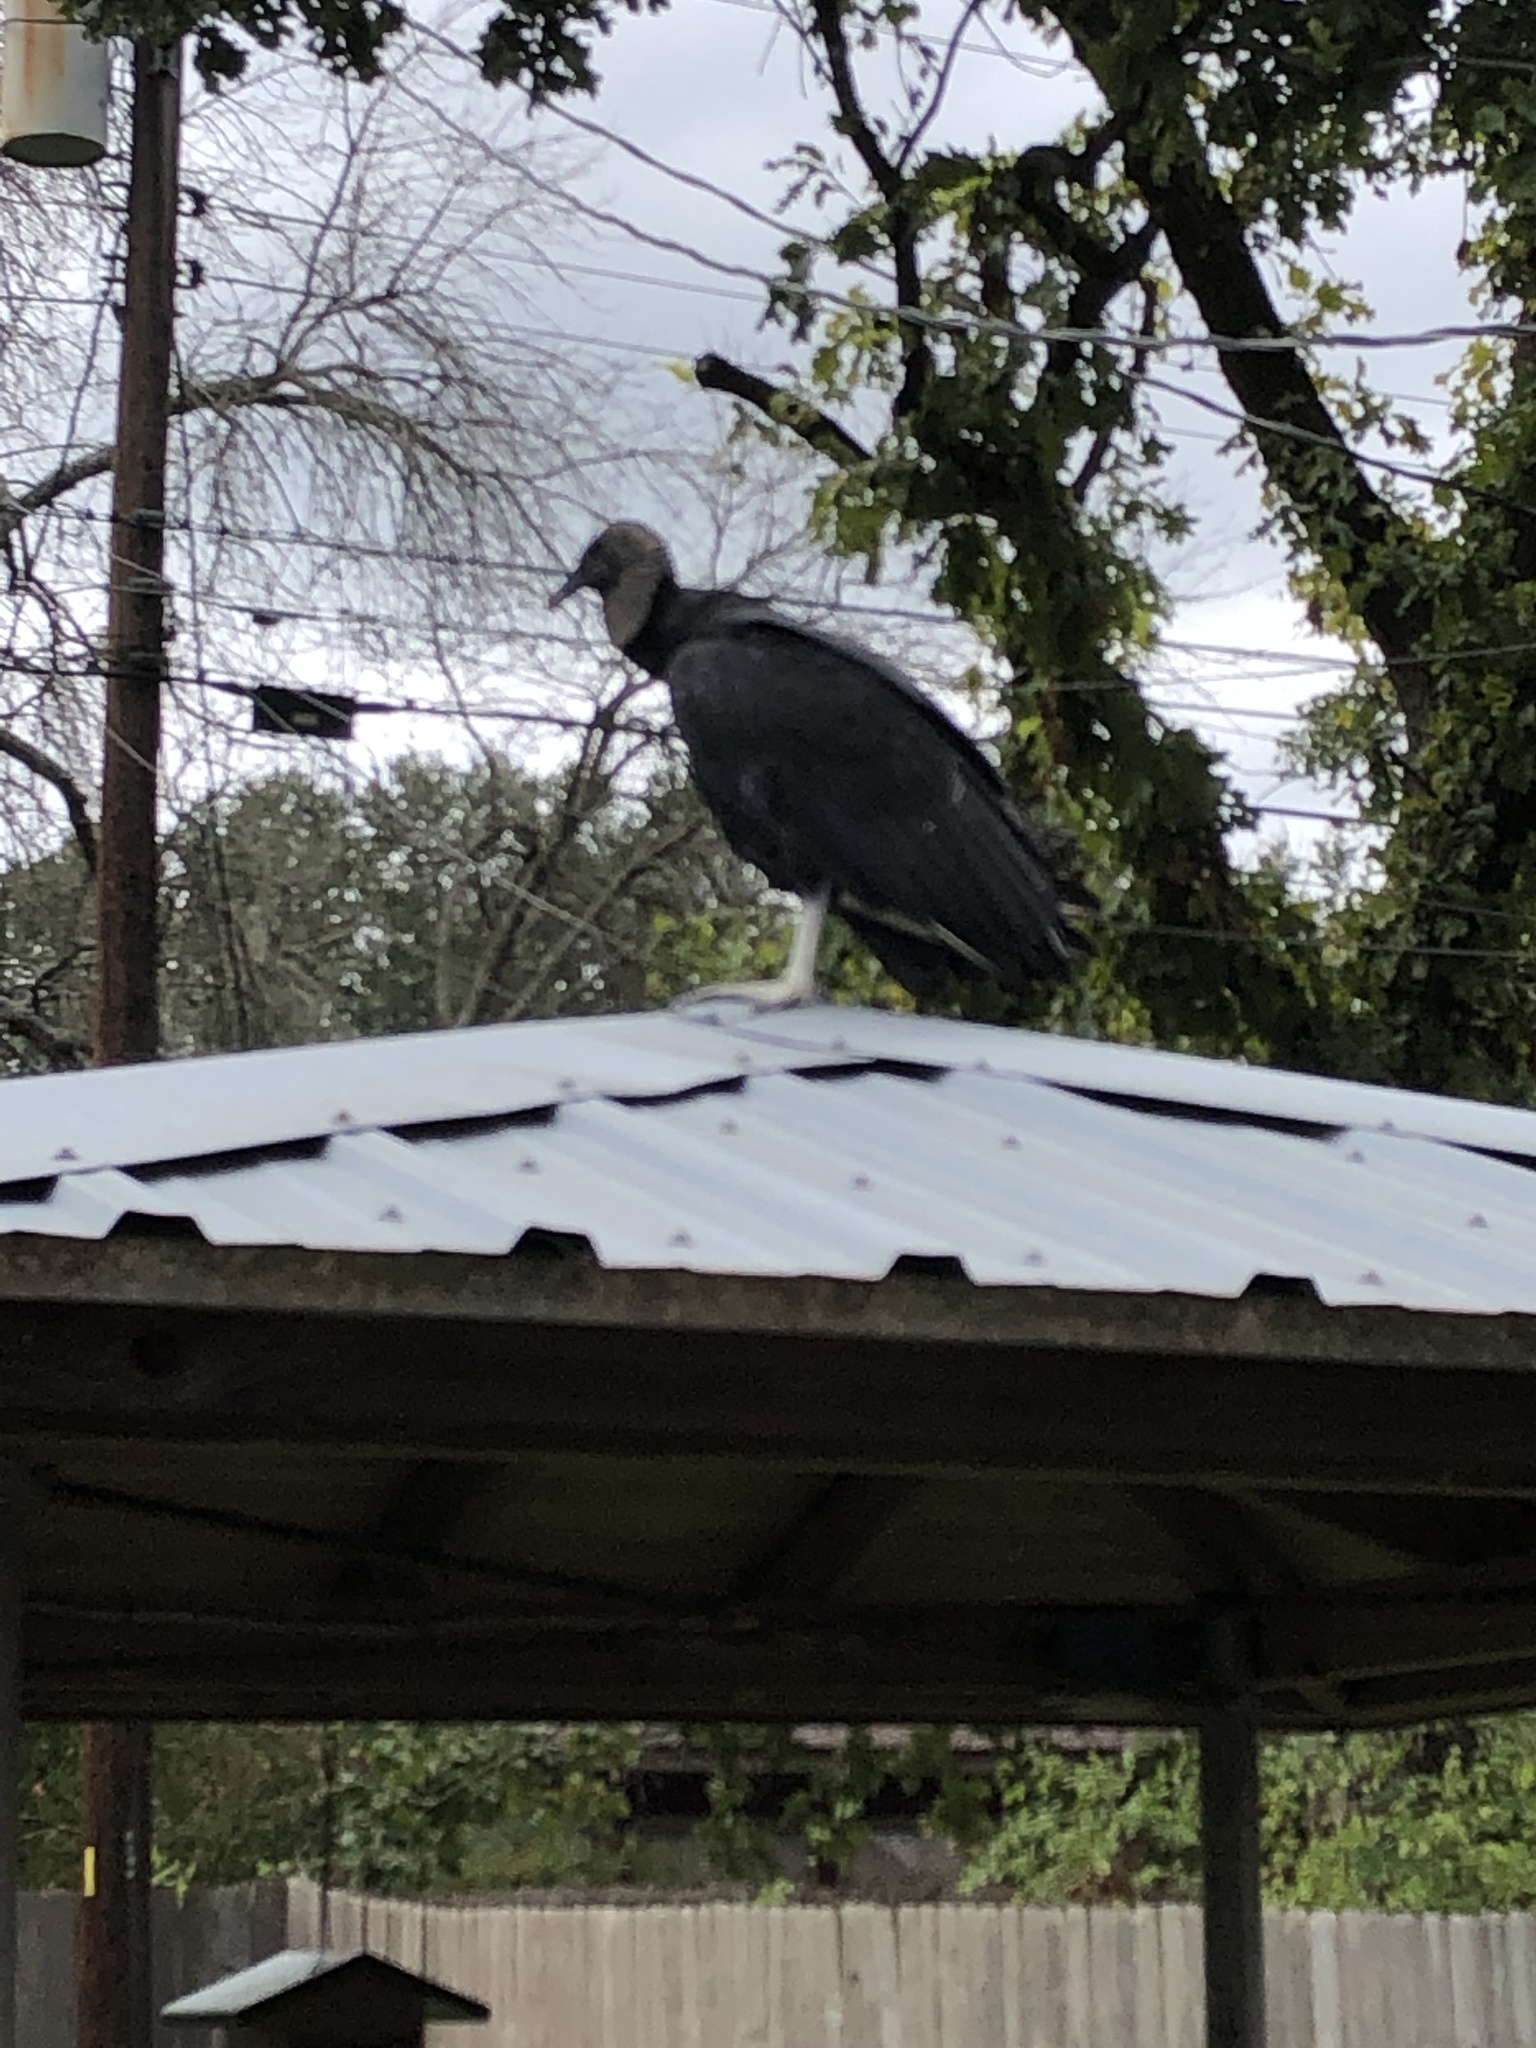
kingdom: Animalia
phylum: Chordata
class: Aves
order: Accipitriformes
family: Cathartidae
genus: Coragyps
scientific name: Coragyps atratus
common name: Black vulture
